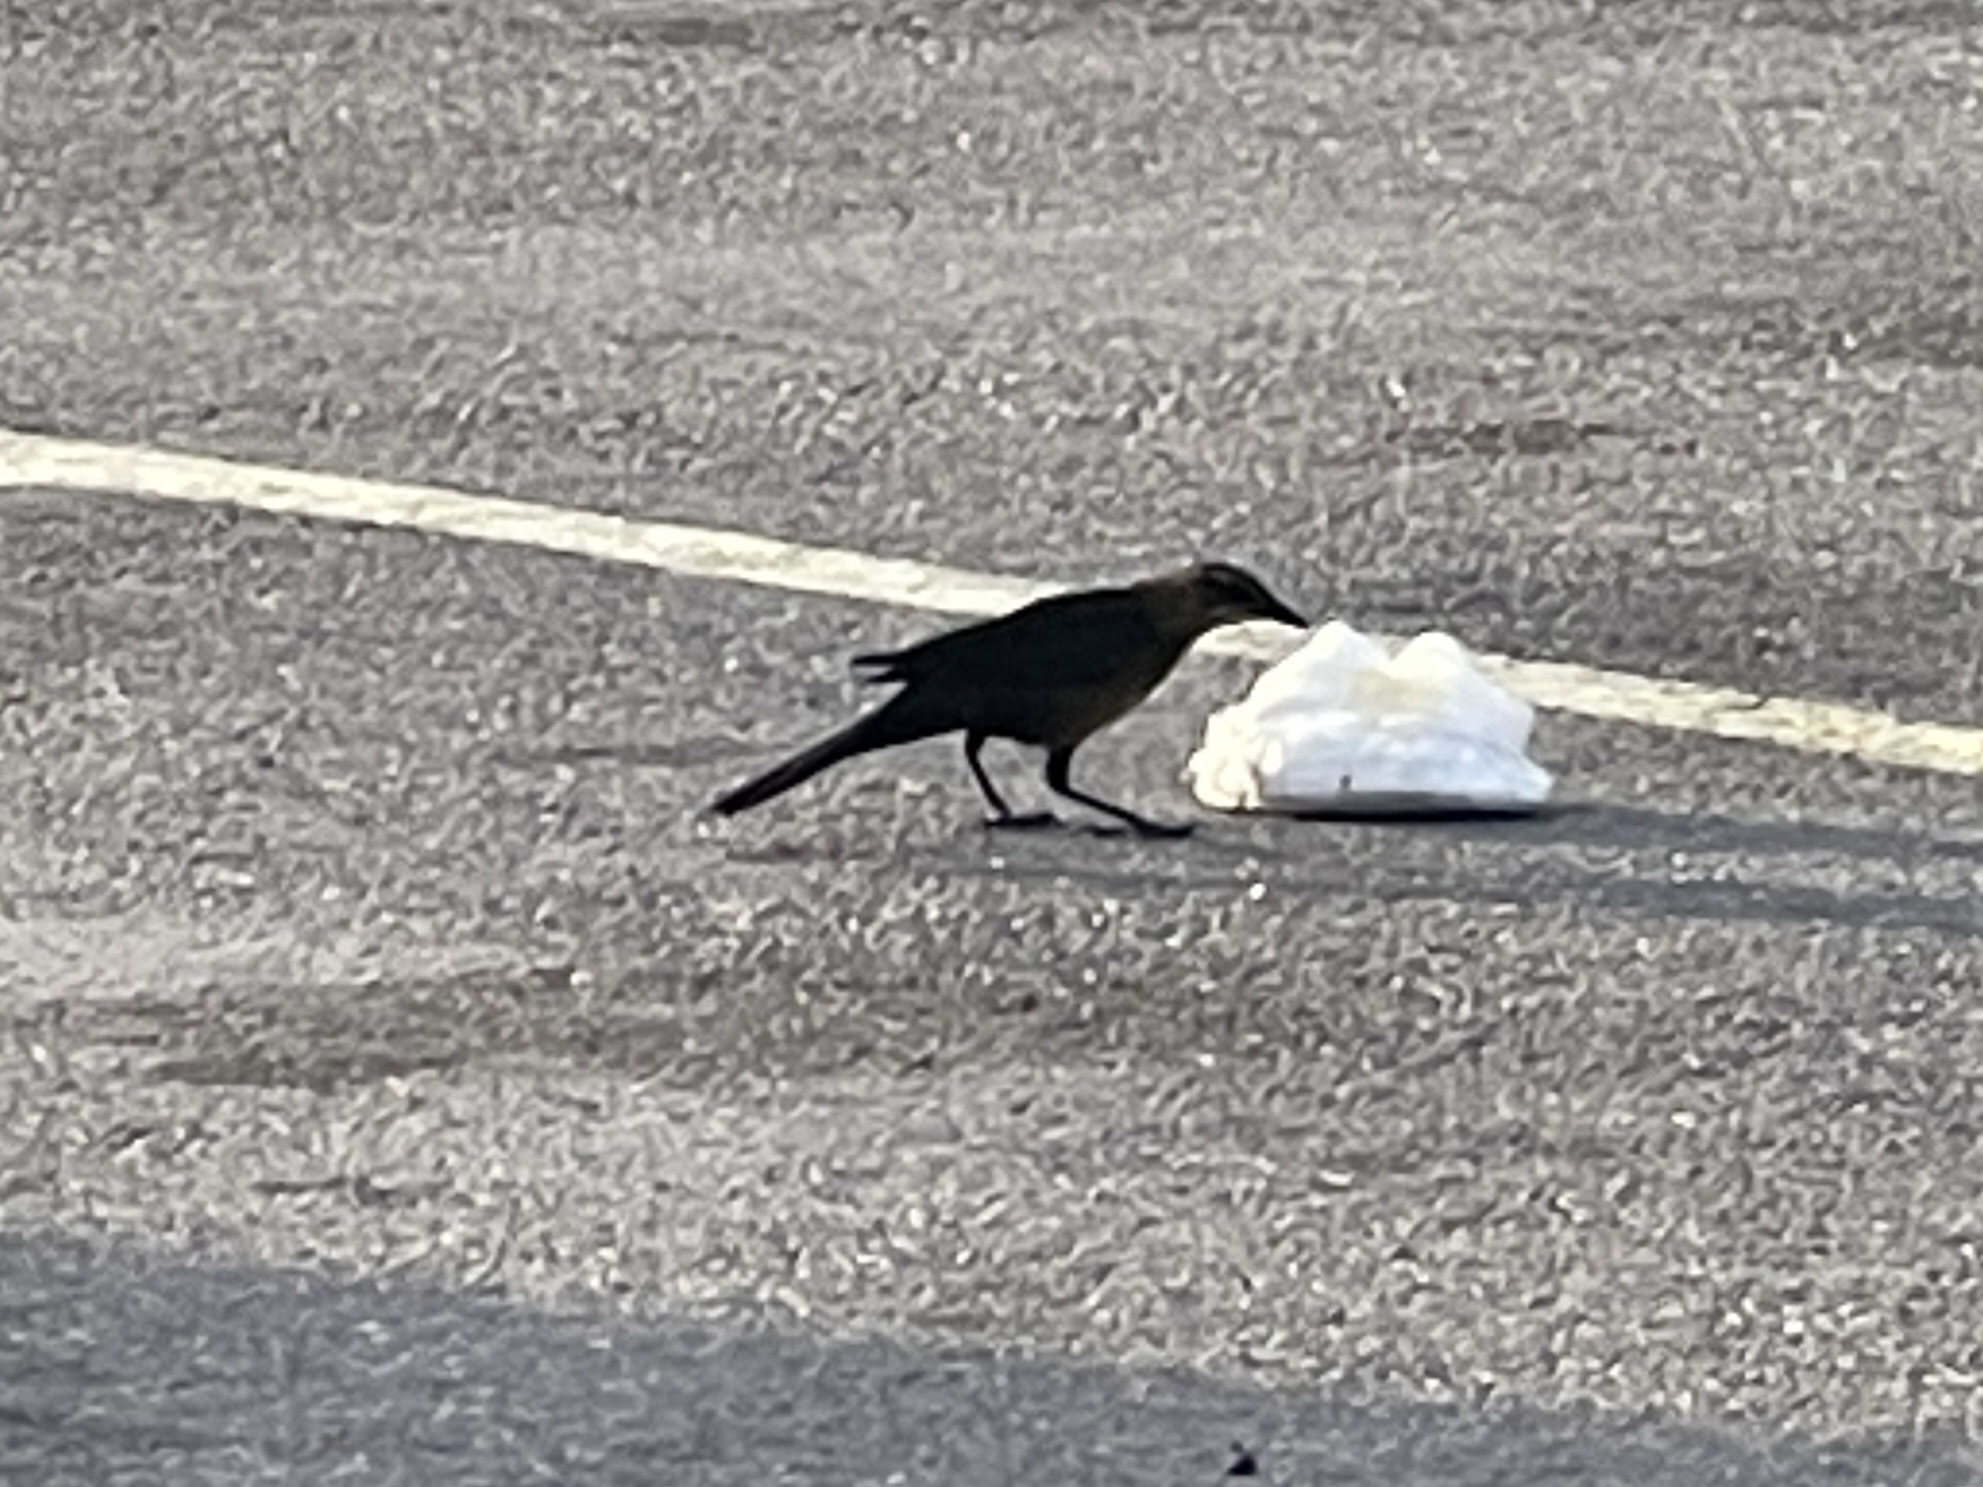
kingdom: Animalia
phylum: Chordata
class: Aves
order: Passeriformes
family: Icteridae
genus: Quiscalus
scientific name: Quiscalus mexicanus
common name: Great-tailed grackle
